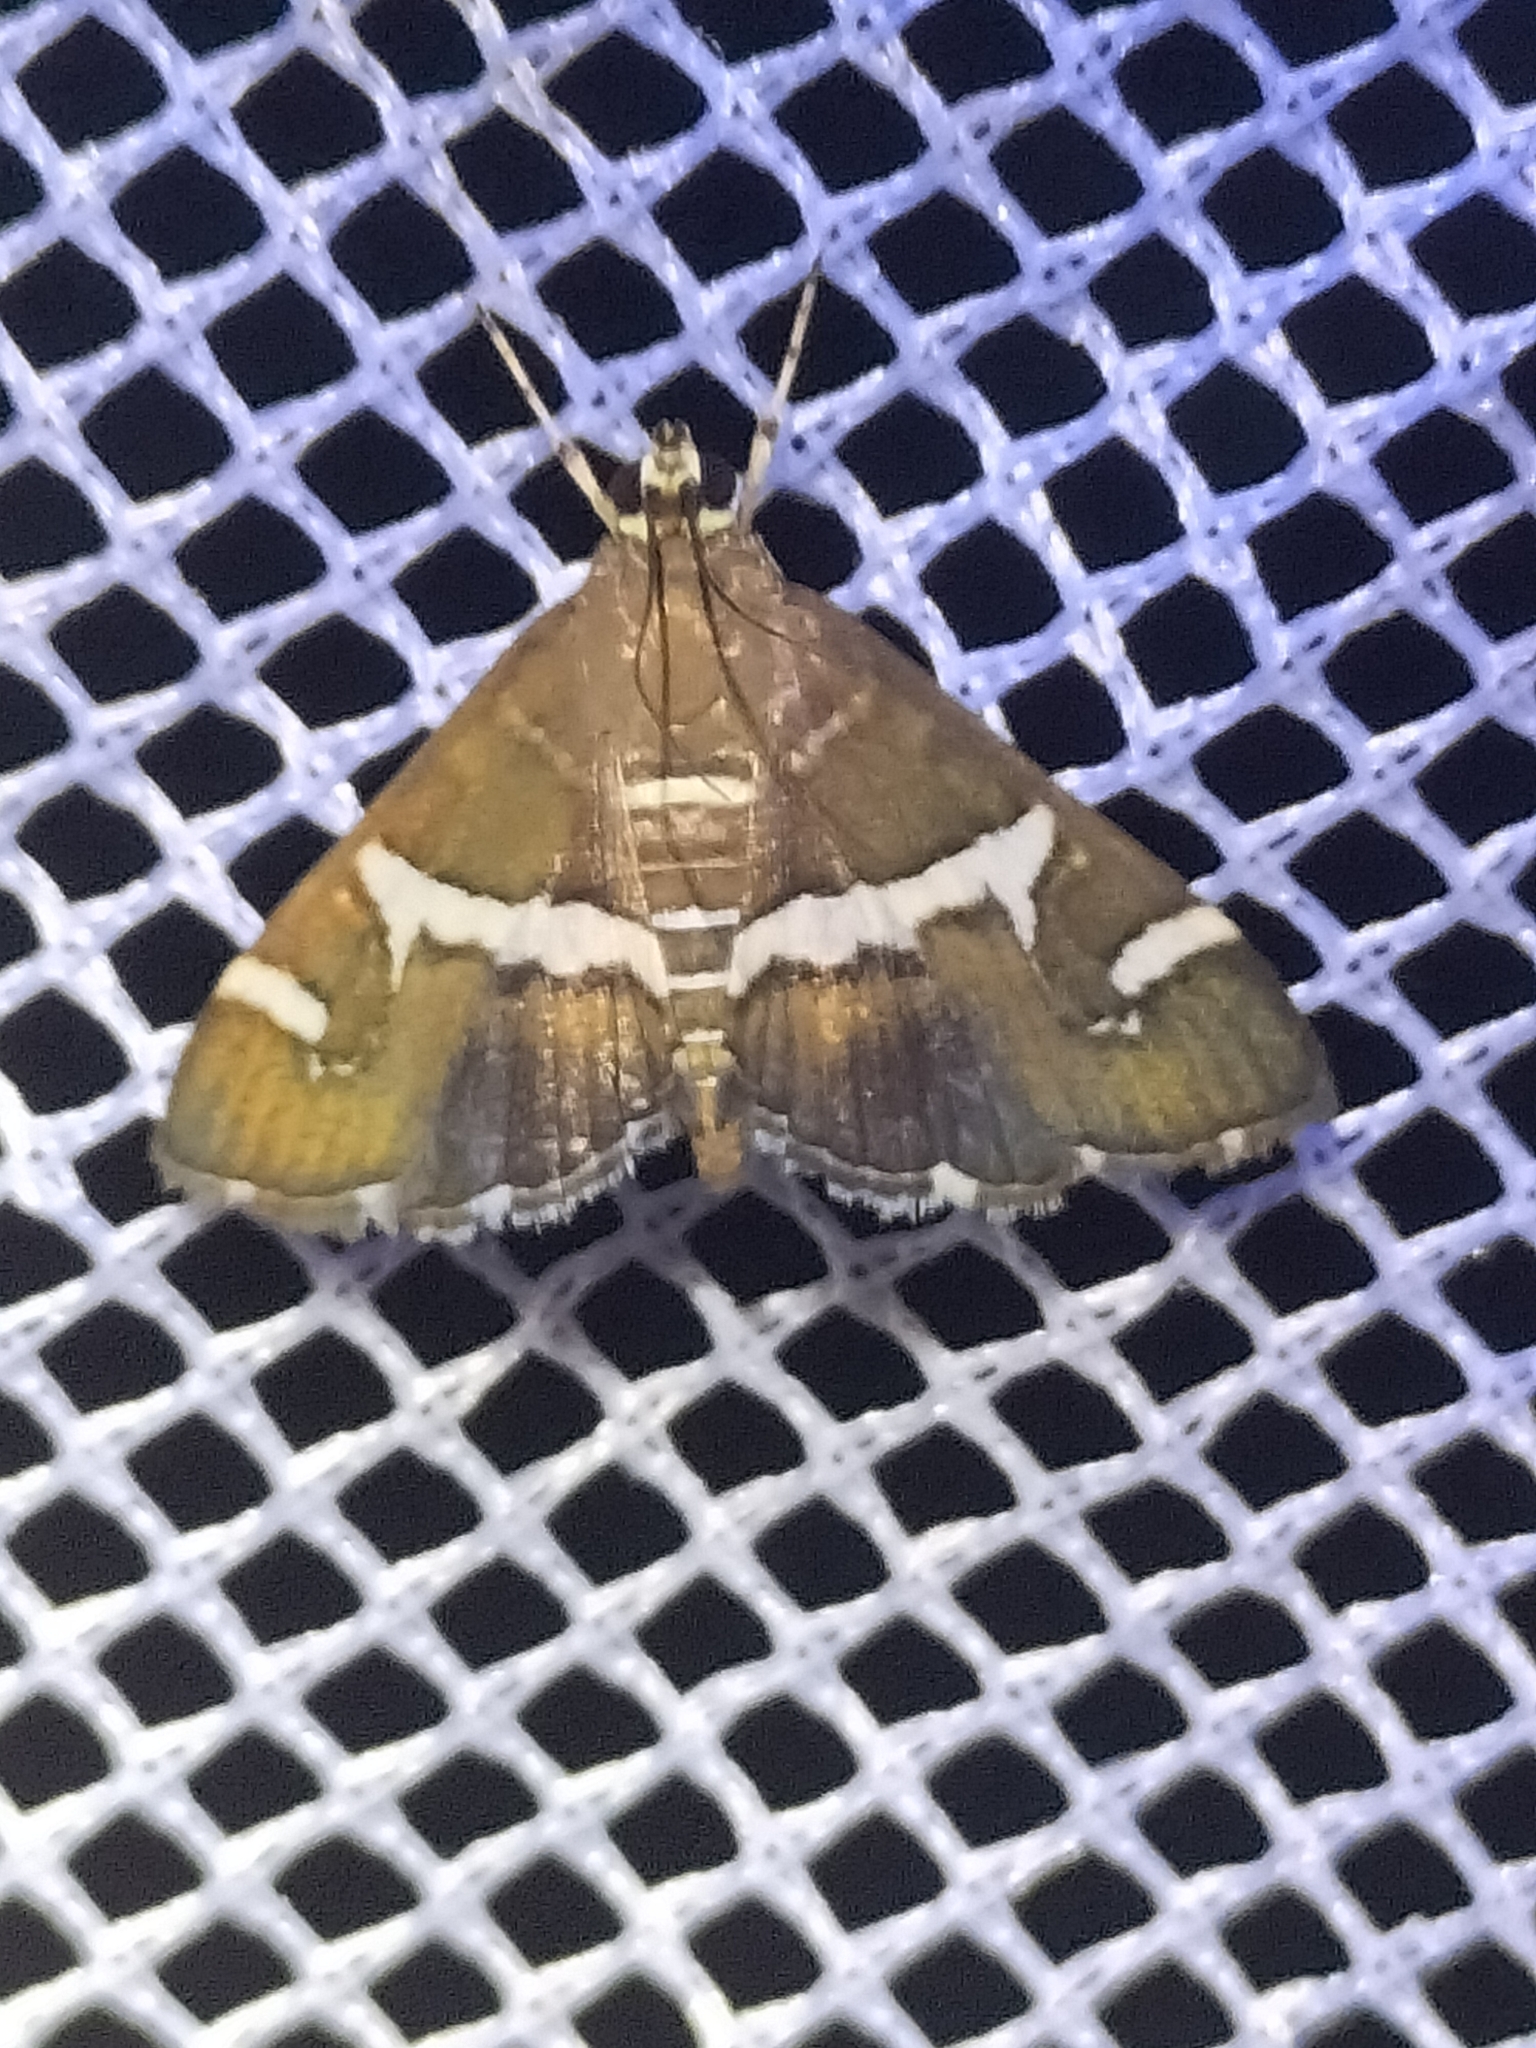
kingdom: Animalia
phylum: Arthropoda
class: Insecta
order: Lepidoptera
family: Crambidae
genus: Spoladea
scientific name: Spoladea recurvalis
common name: Beet webworm moth
